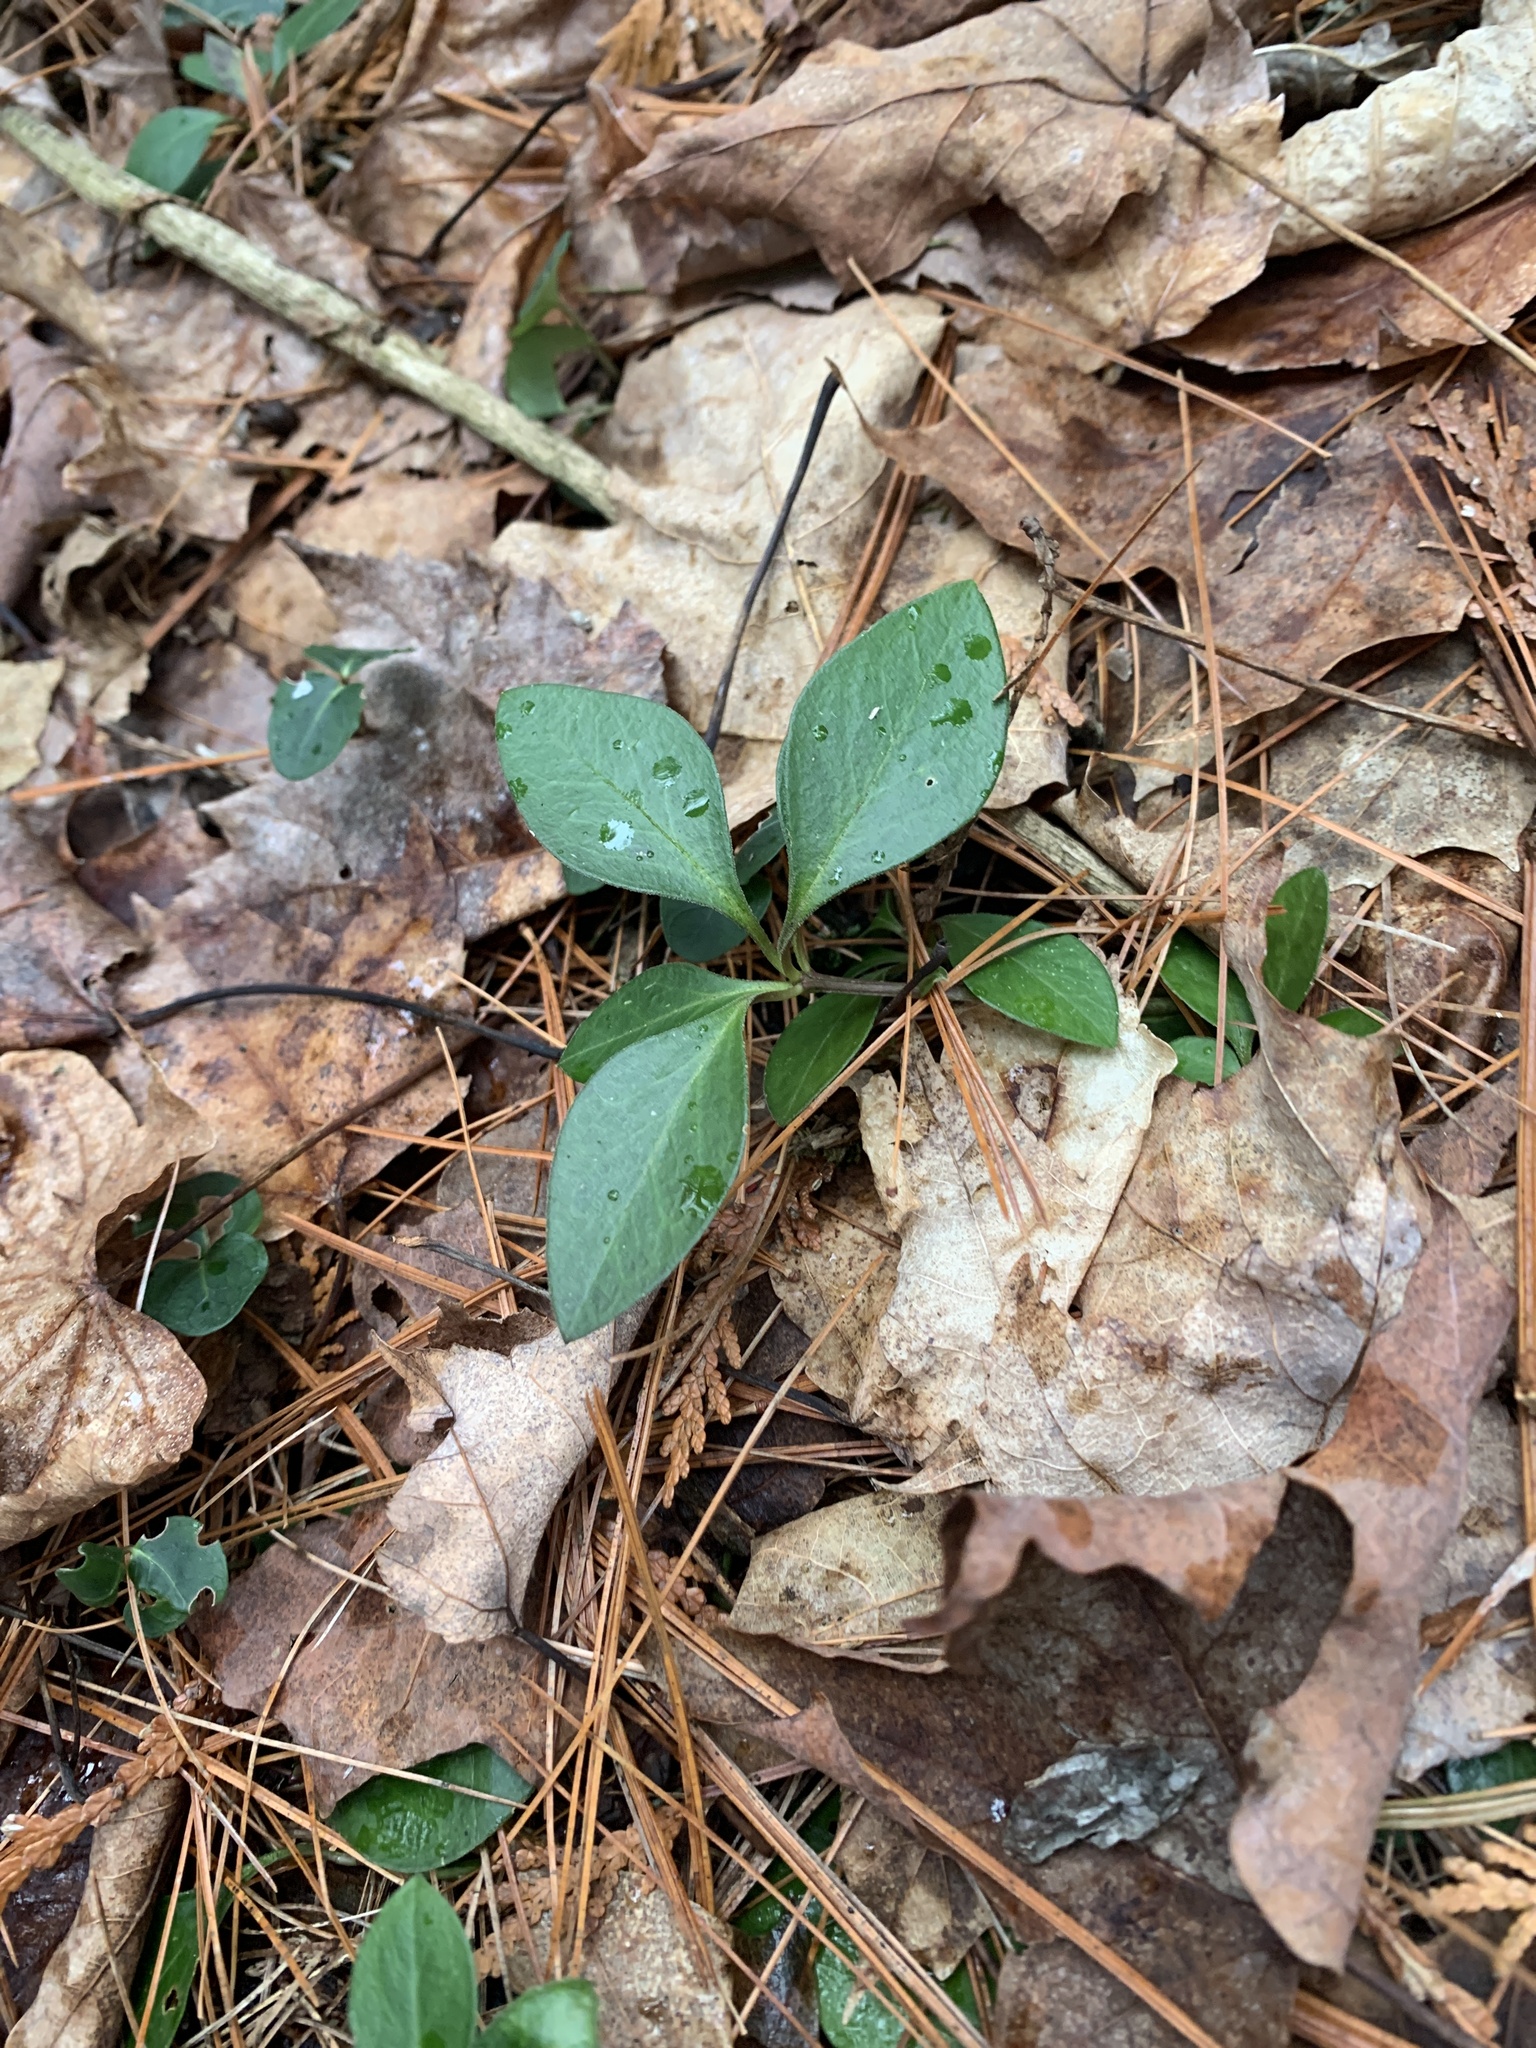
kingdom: Plantae
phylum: Tracheophyta
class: Magnoliopsida
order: Fabales
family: Polygalaceae
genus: Polygaloides
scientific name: Polygaloides paucifolia
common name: Bird-on-the-wing
